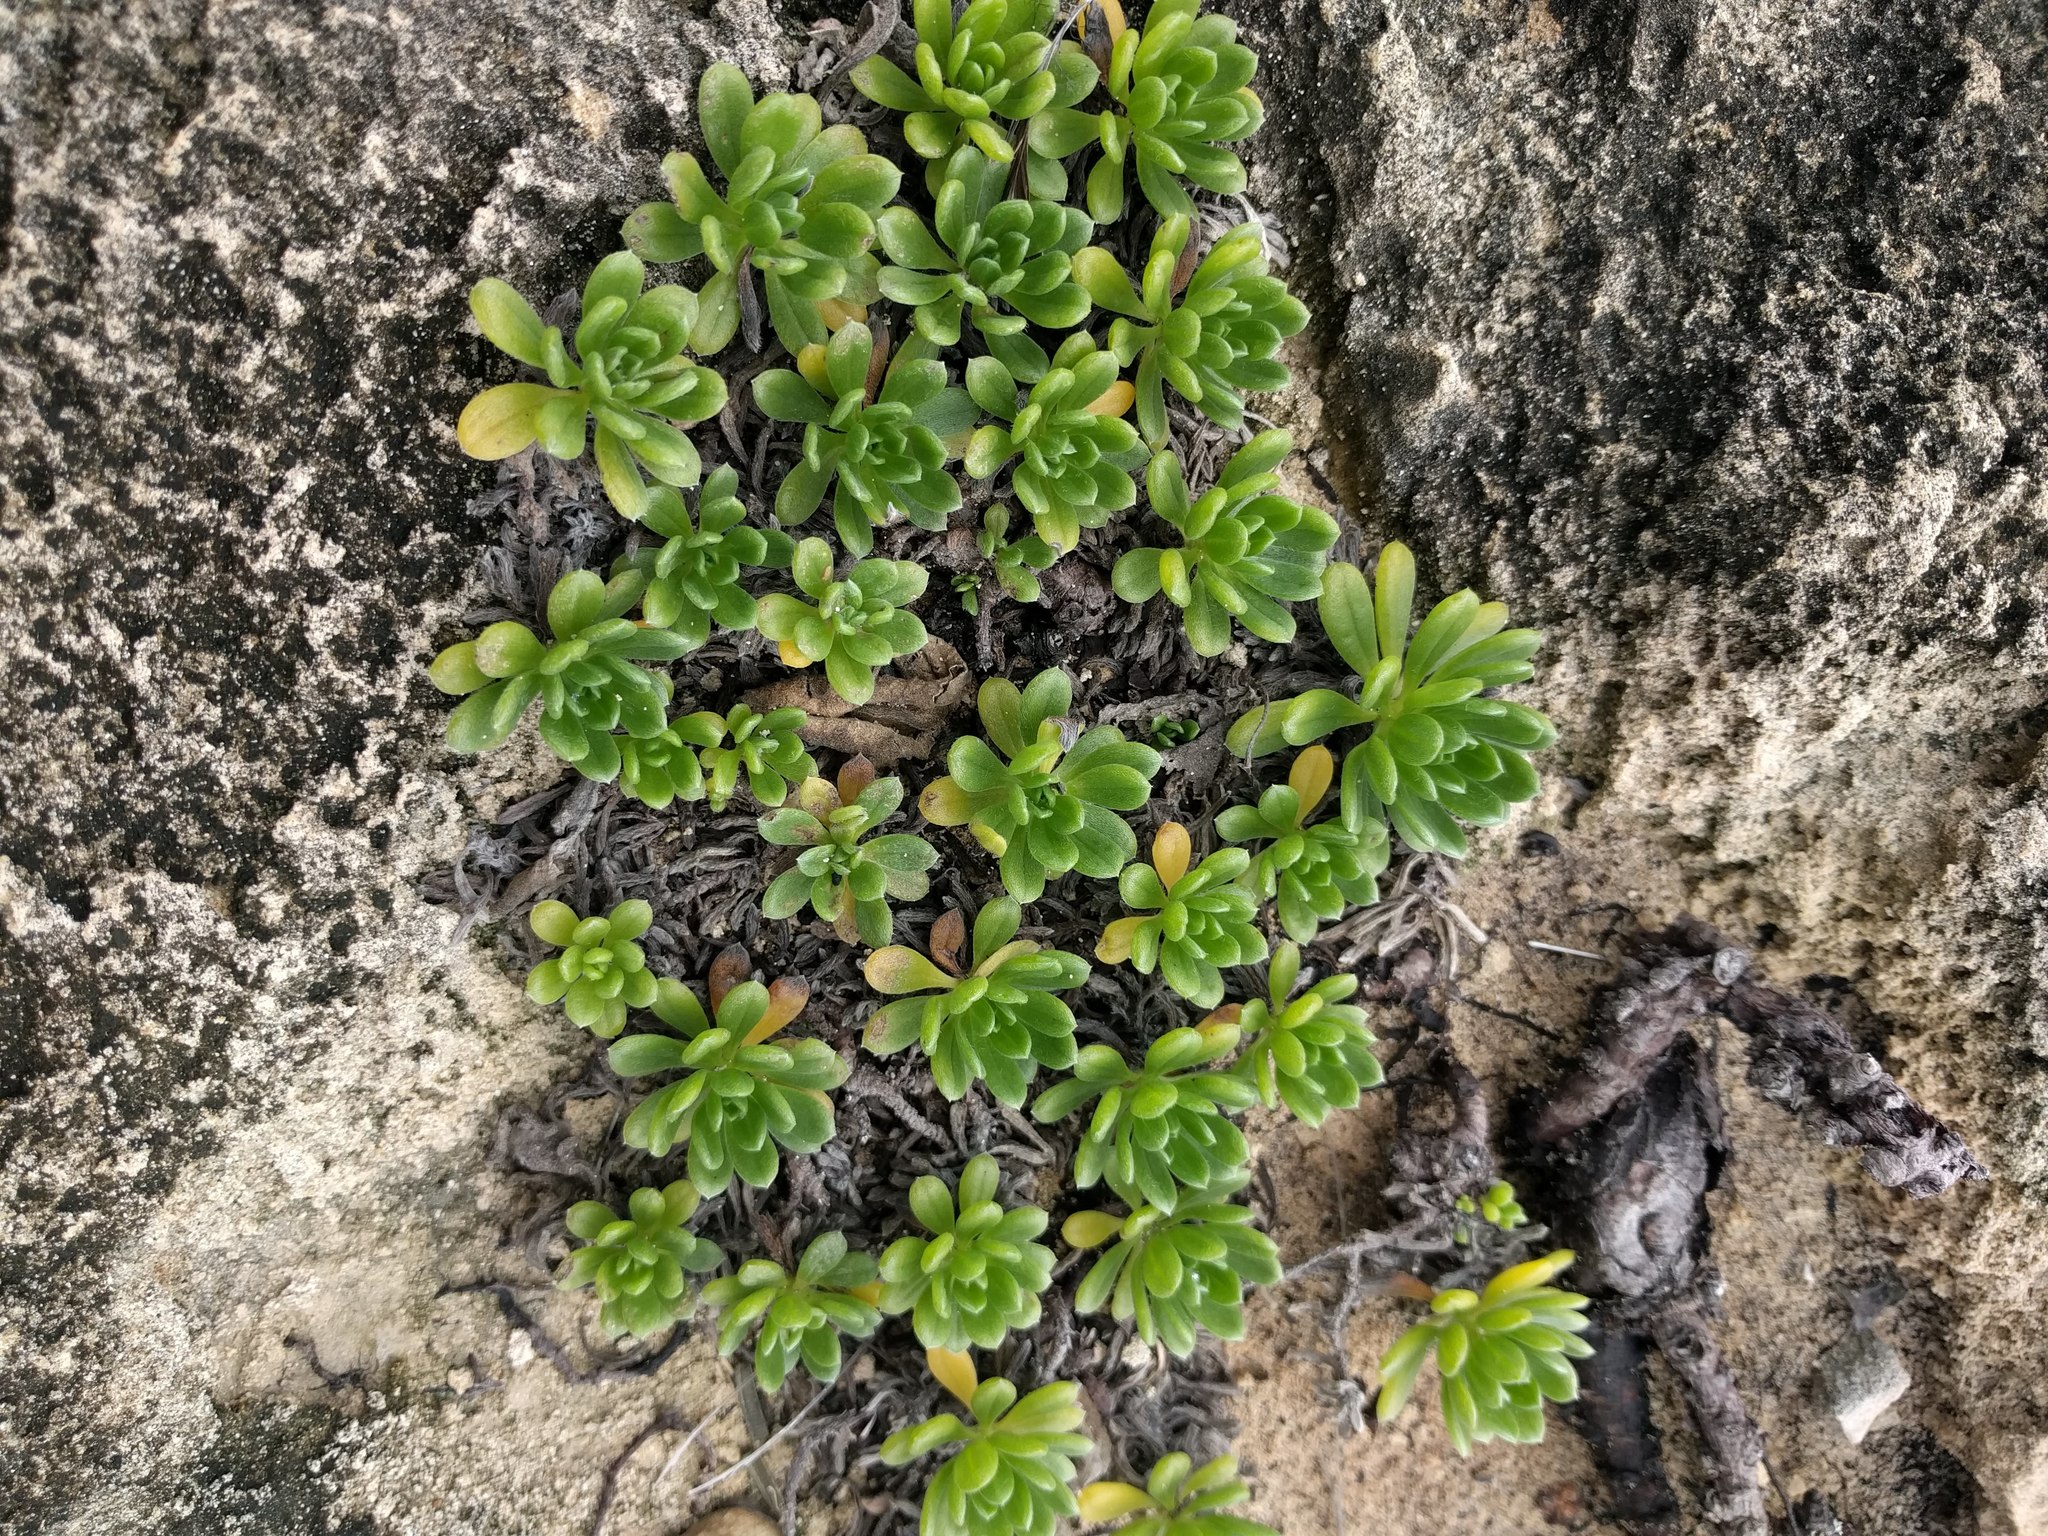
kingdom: Plantae
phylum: Tracheophyta
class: Magnoliopsida
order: Boraginales
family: Heliotropiaceae
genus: Heliotropium
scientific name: Heliotropium anomalum
